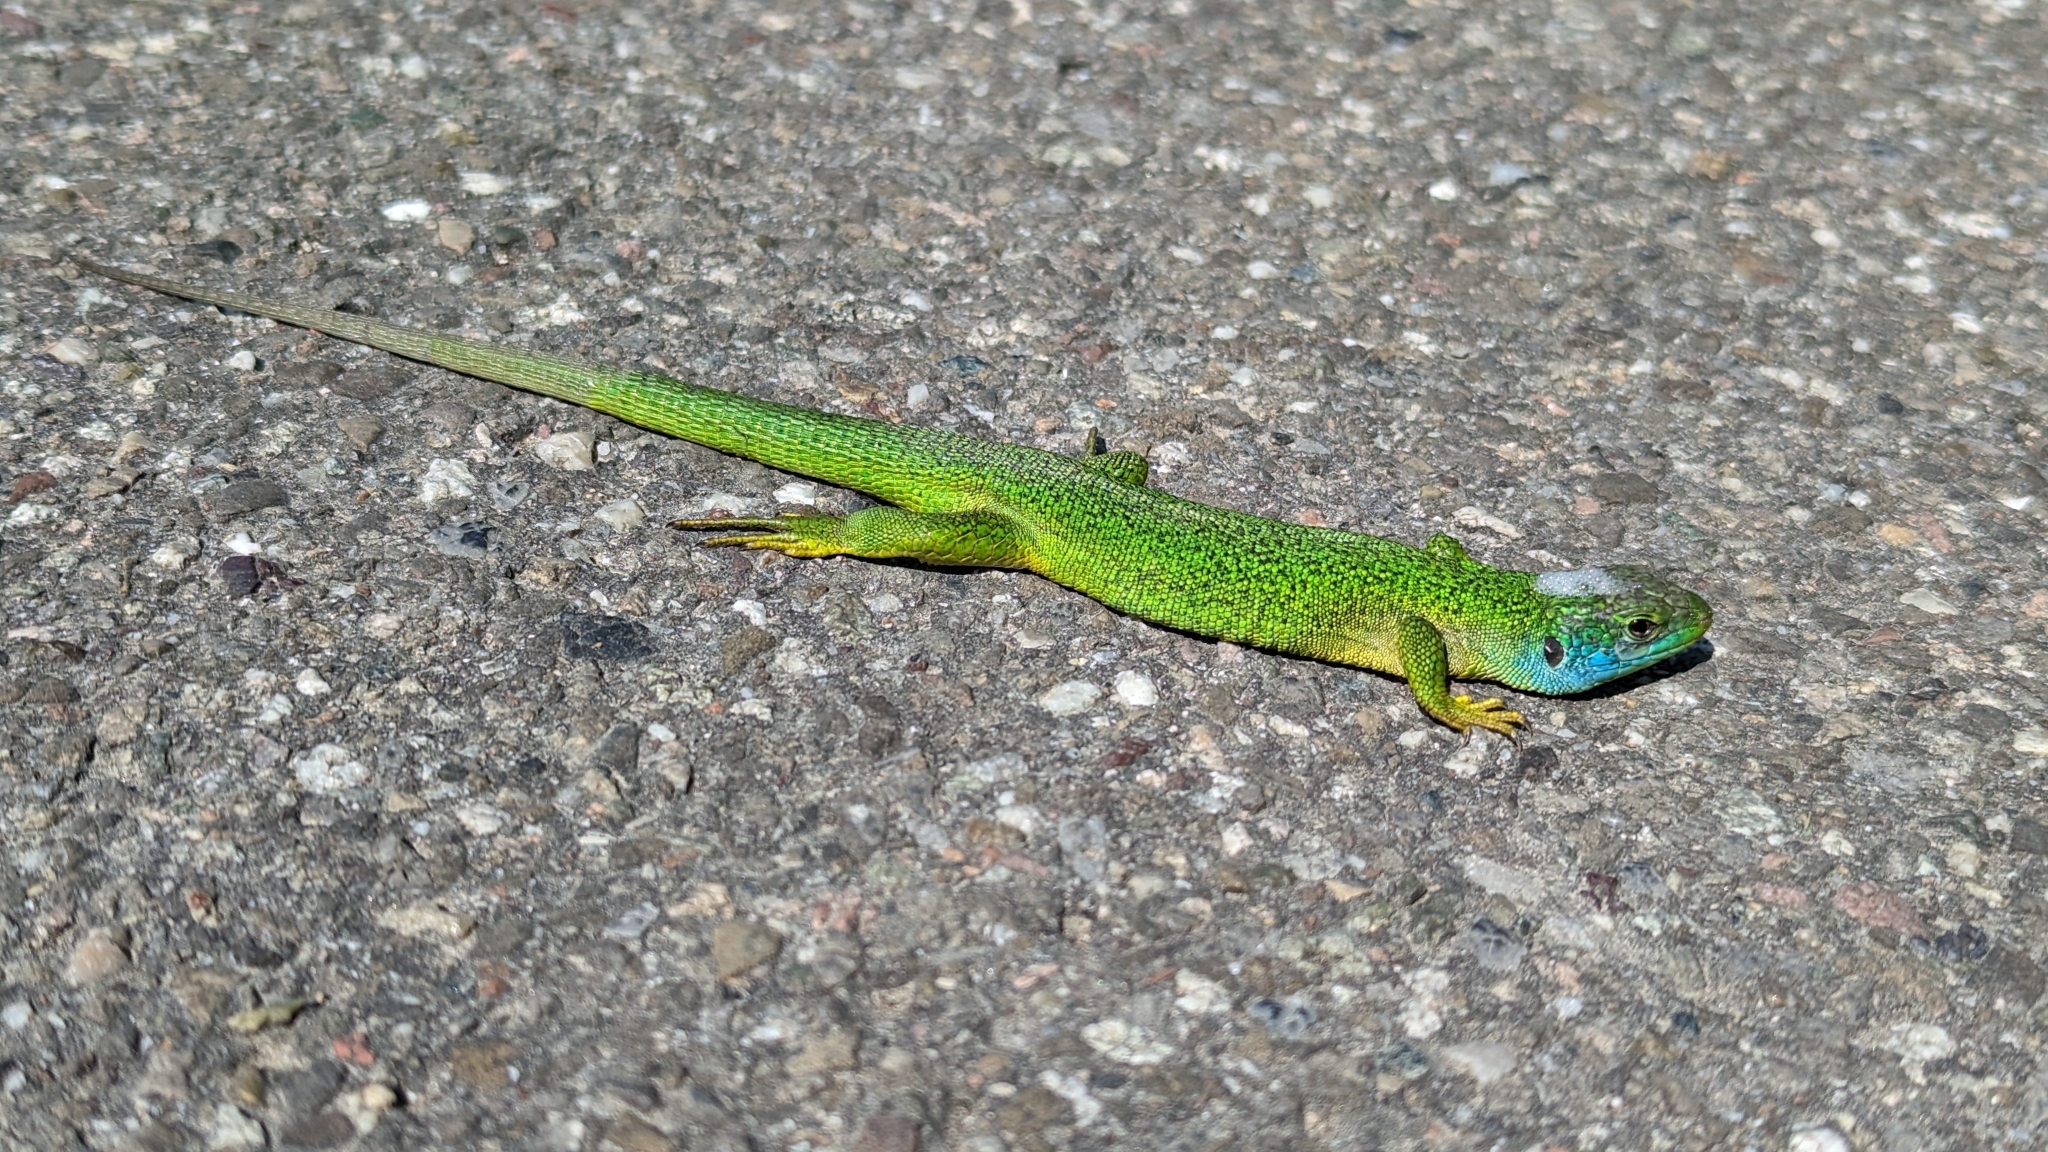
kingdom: Animalia
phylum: Chordata
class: Squamata
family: Lacertidae
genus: Lacerta
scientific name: Lacerta bilineata
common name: Western green lizard
